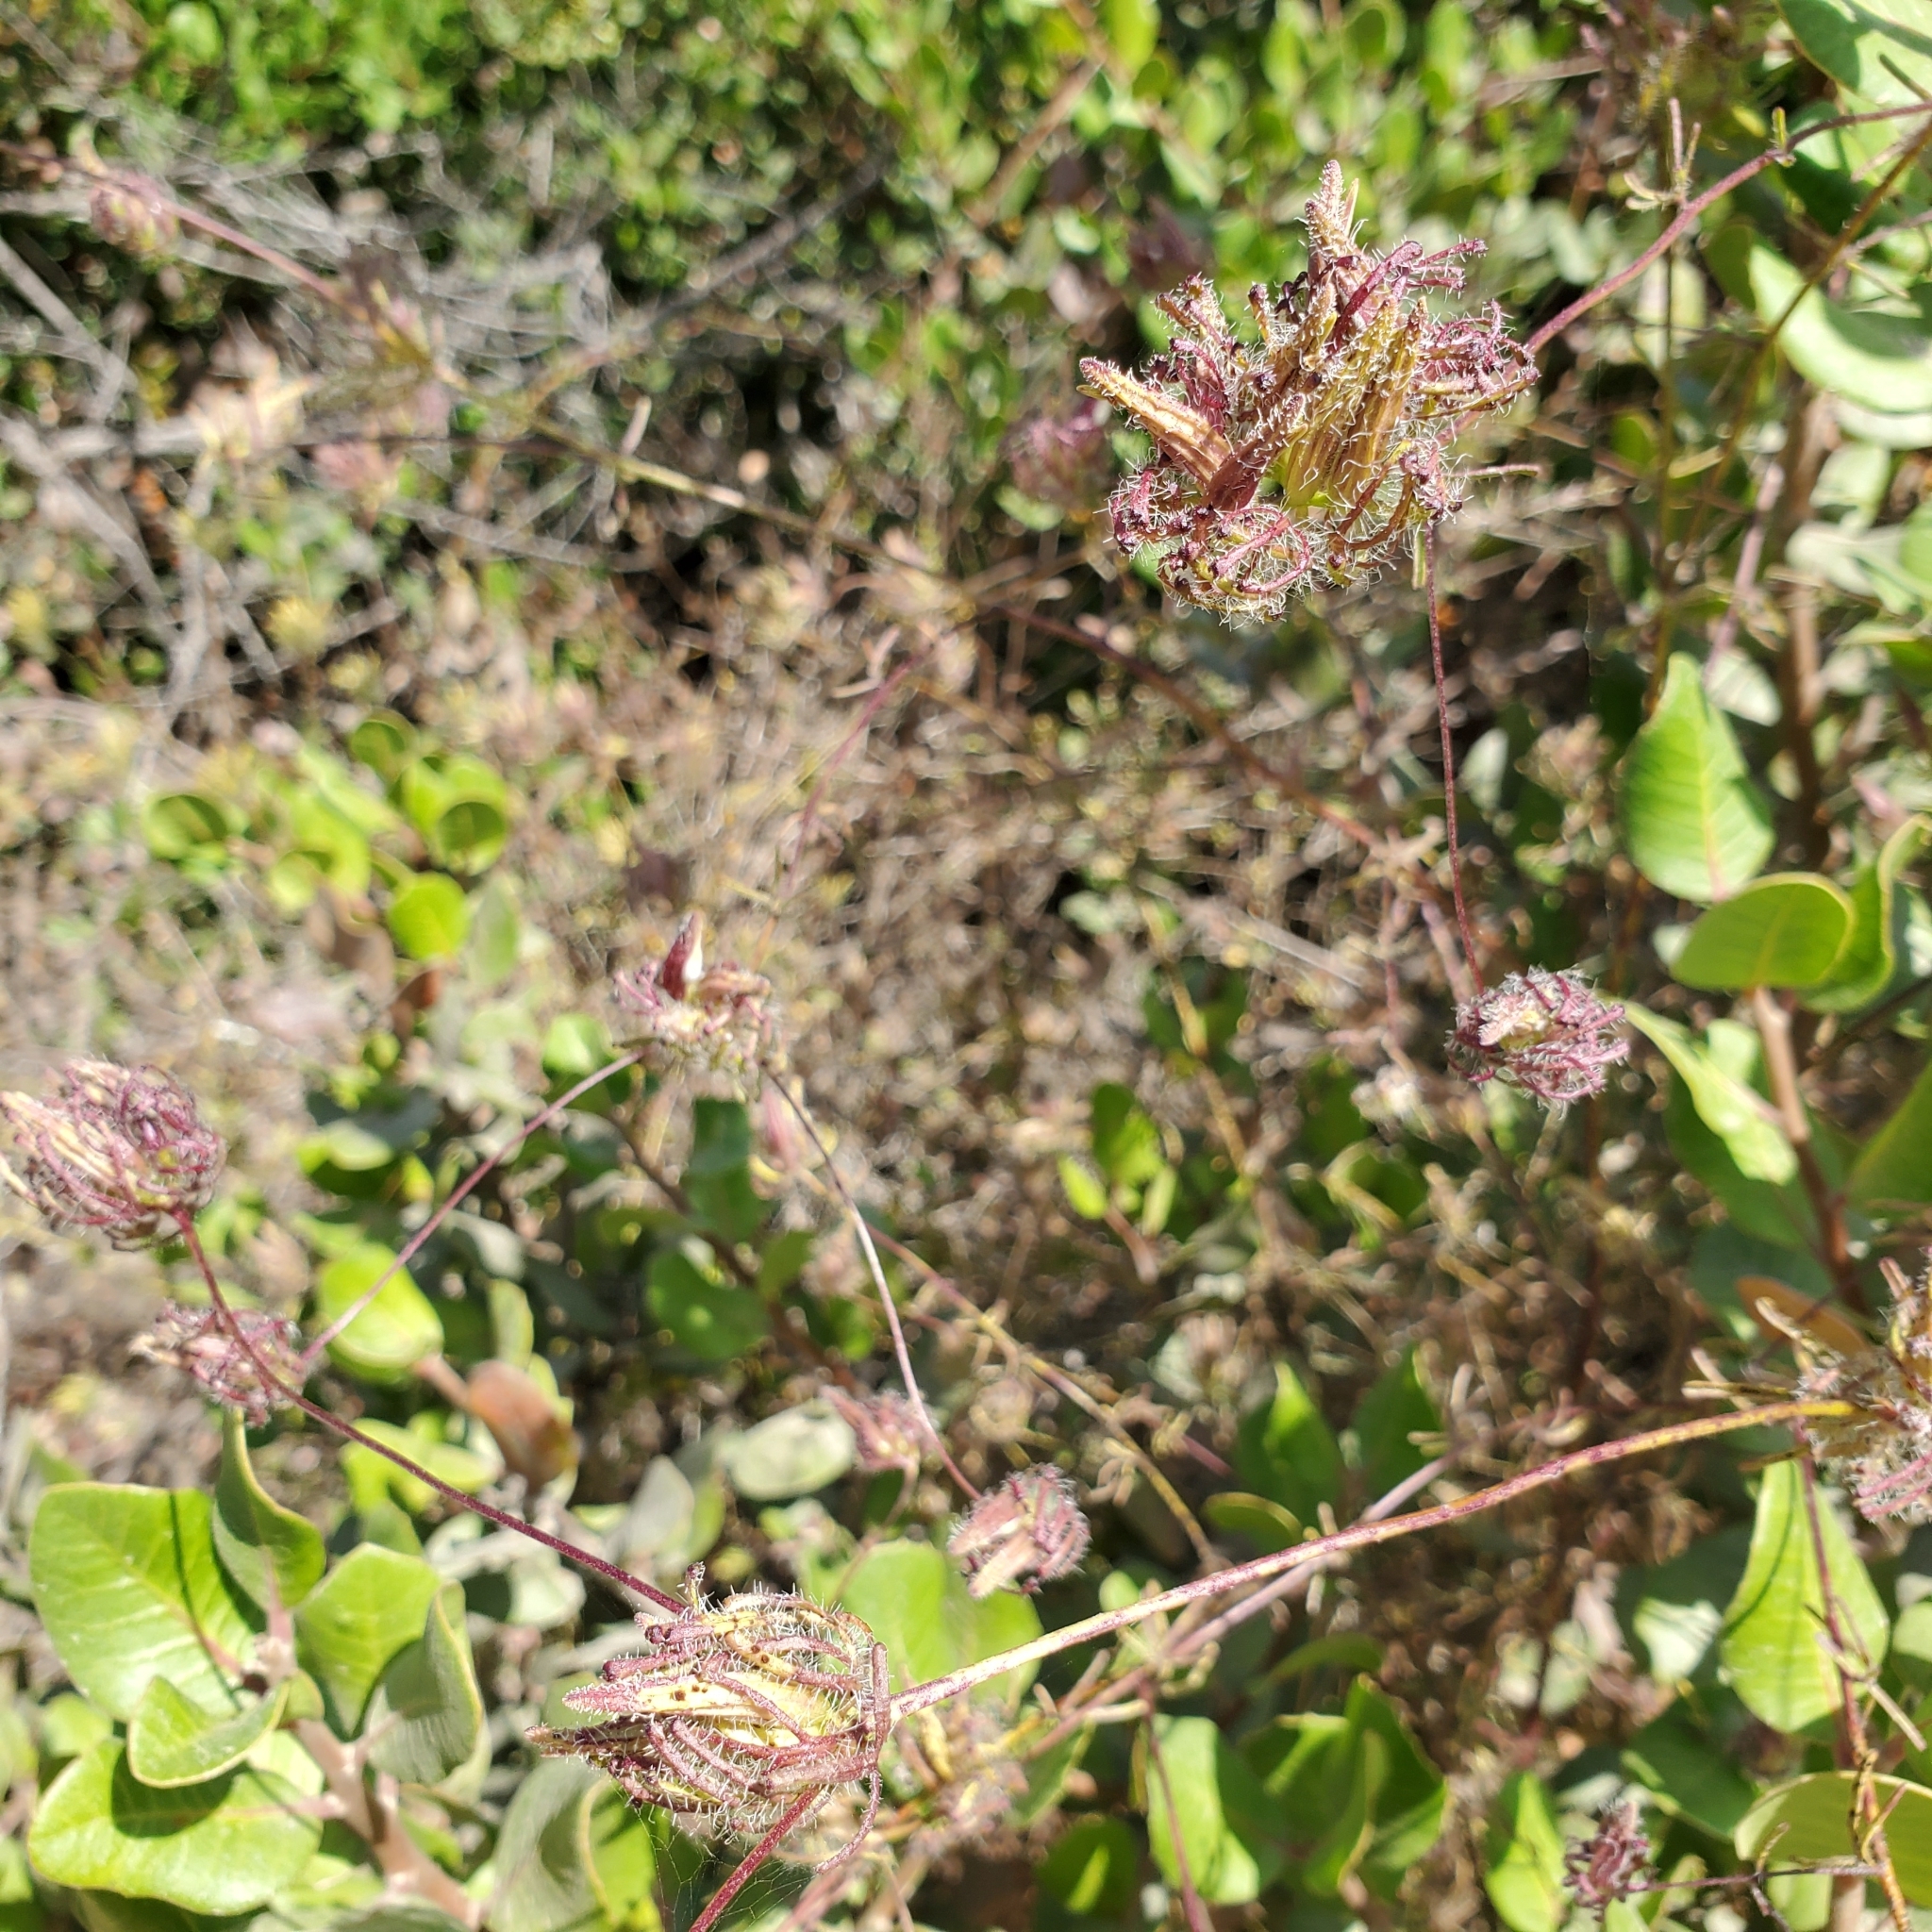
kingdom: Plantae
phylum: Tracheophyta
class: Magnoliopsida
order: Lamiales
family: Orobanchaceae
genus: Cordylanthus
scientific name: Cordylanthus rigidus
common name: Stiff-branch bird's-beak
